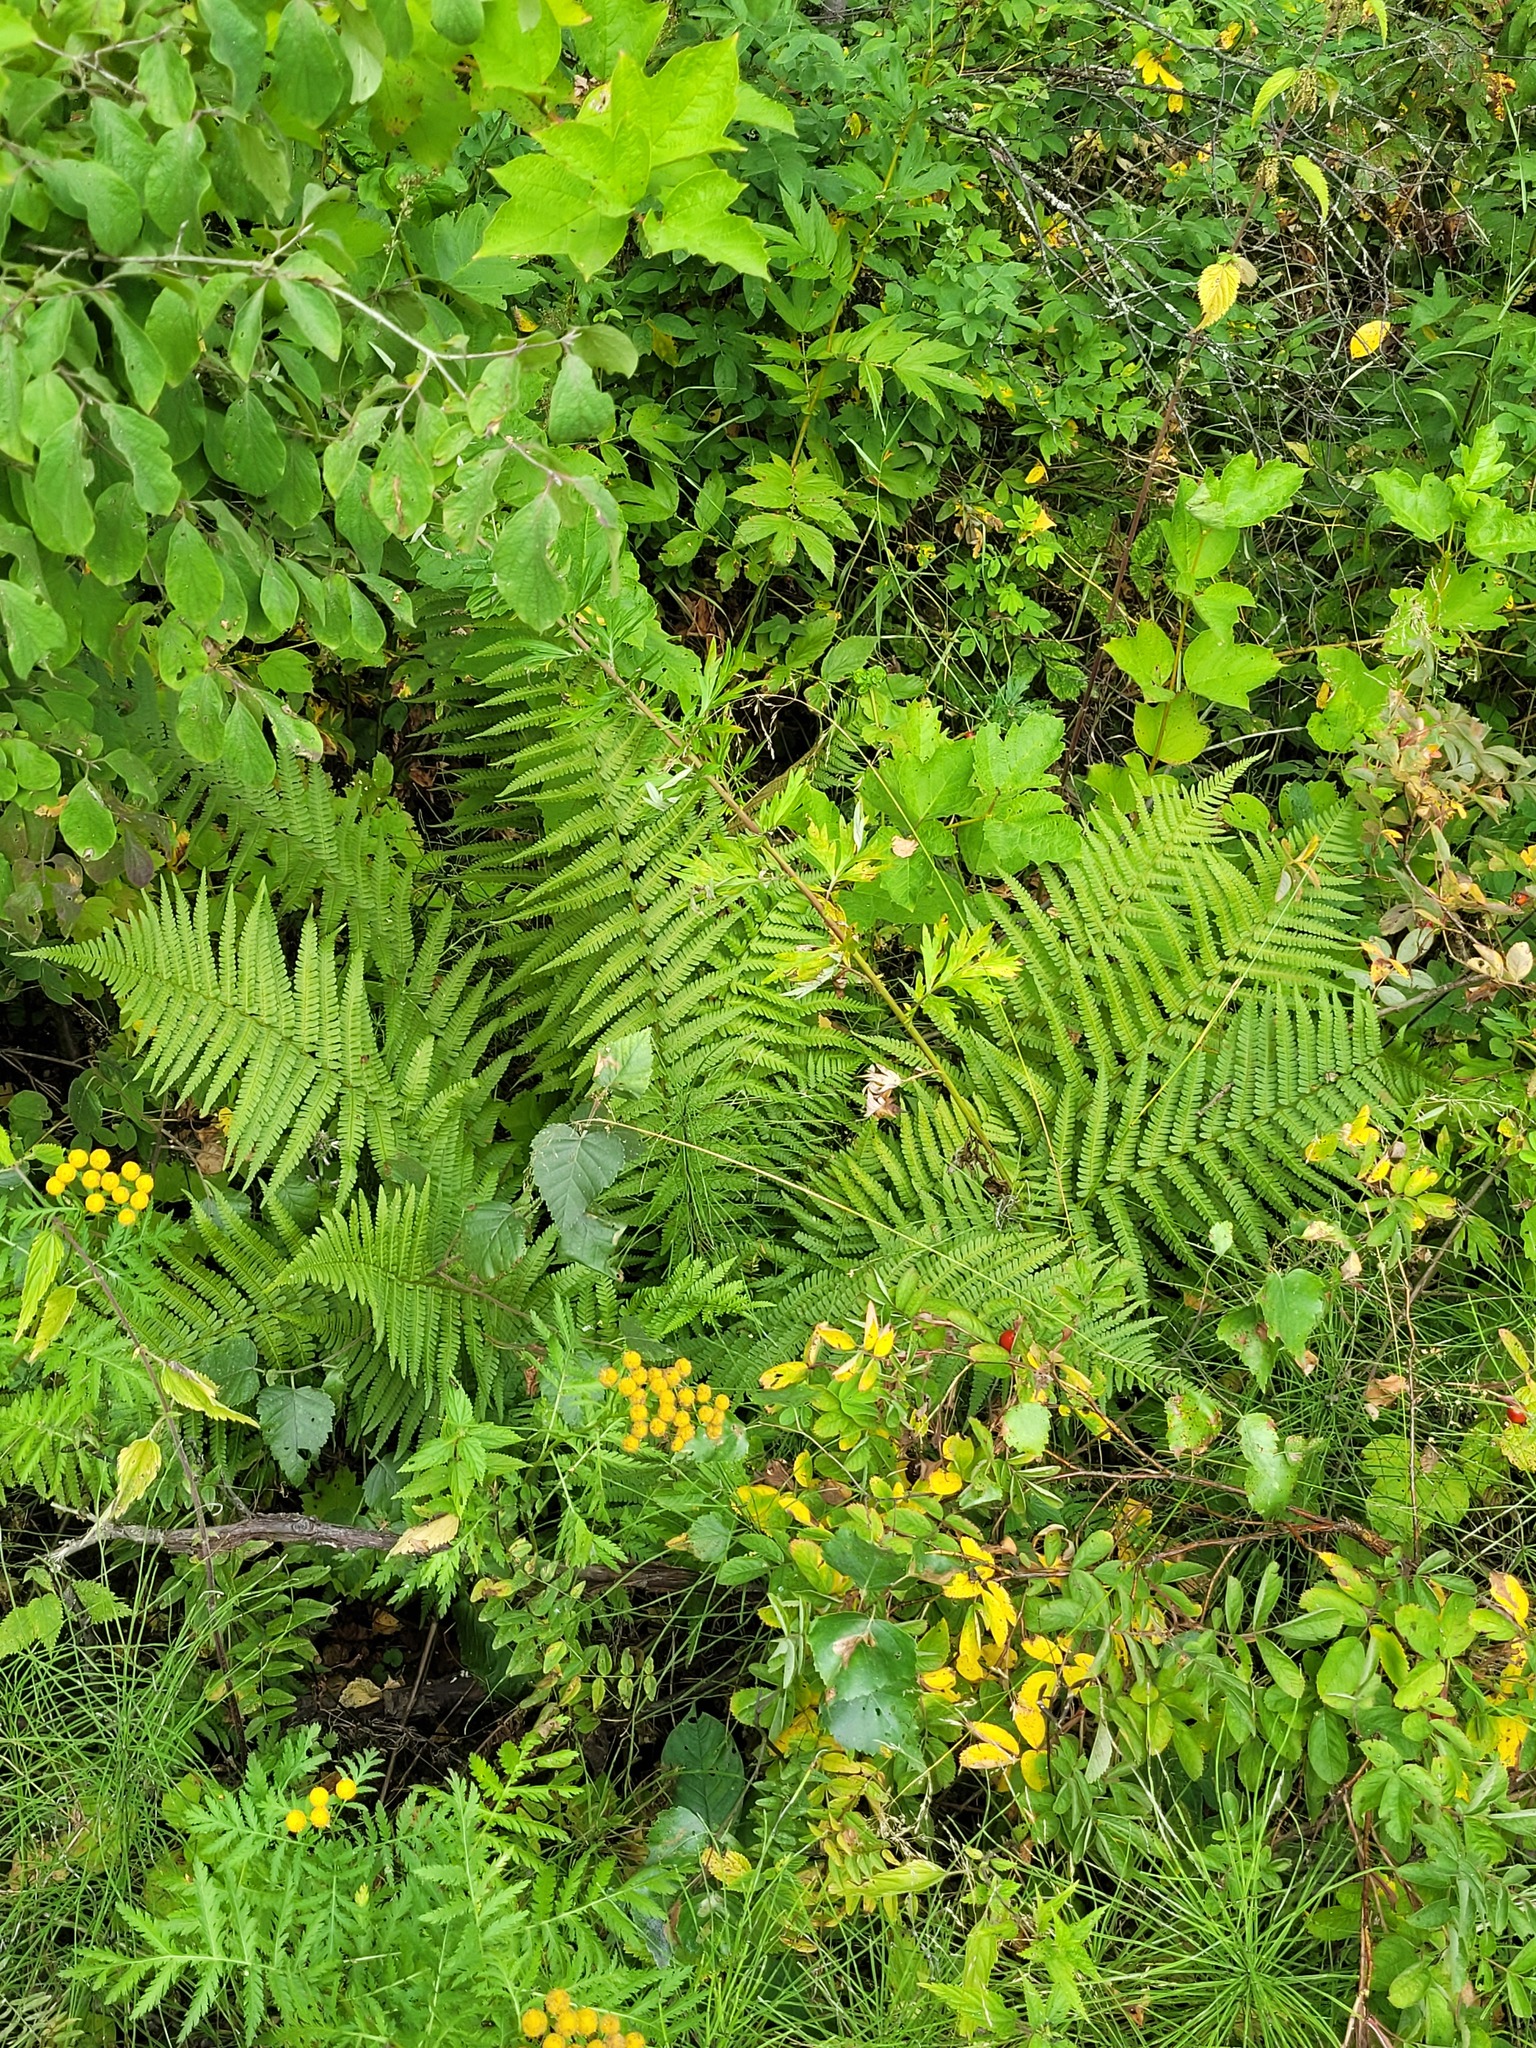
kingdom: Plantae
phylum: Tracheophyta
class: Polypodiopsida
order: Polypodiales
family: Dryopteridaceae
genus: Dryopteris
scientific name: Dryopteris filix-mas
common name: Male fern
